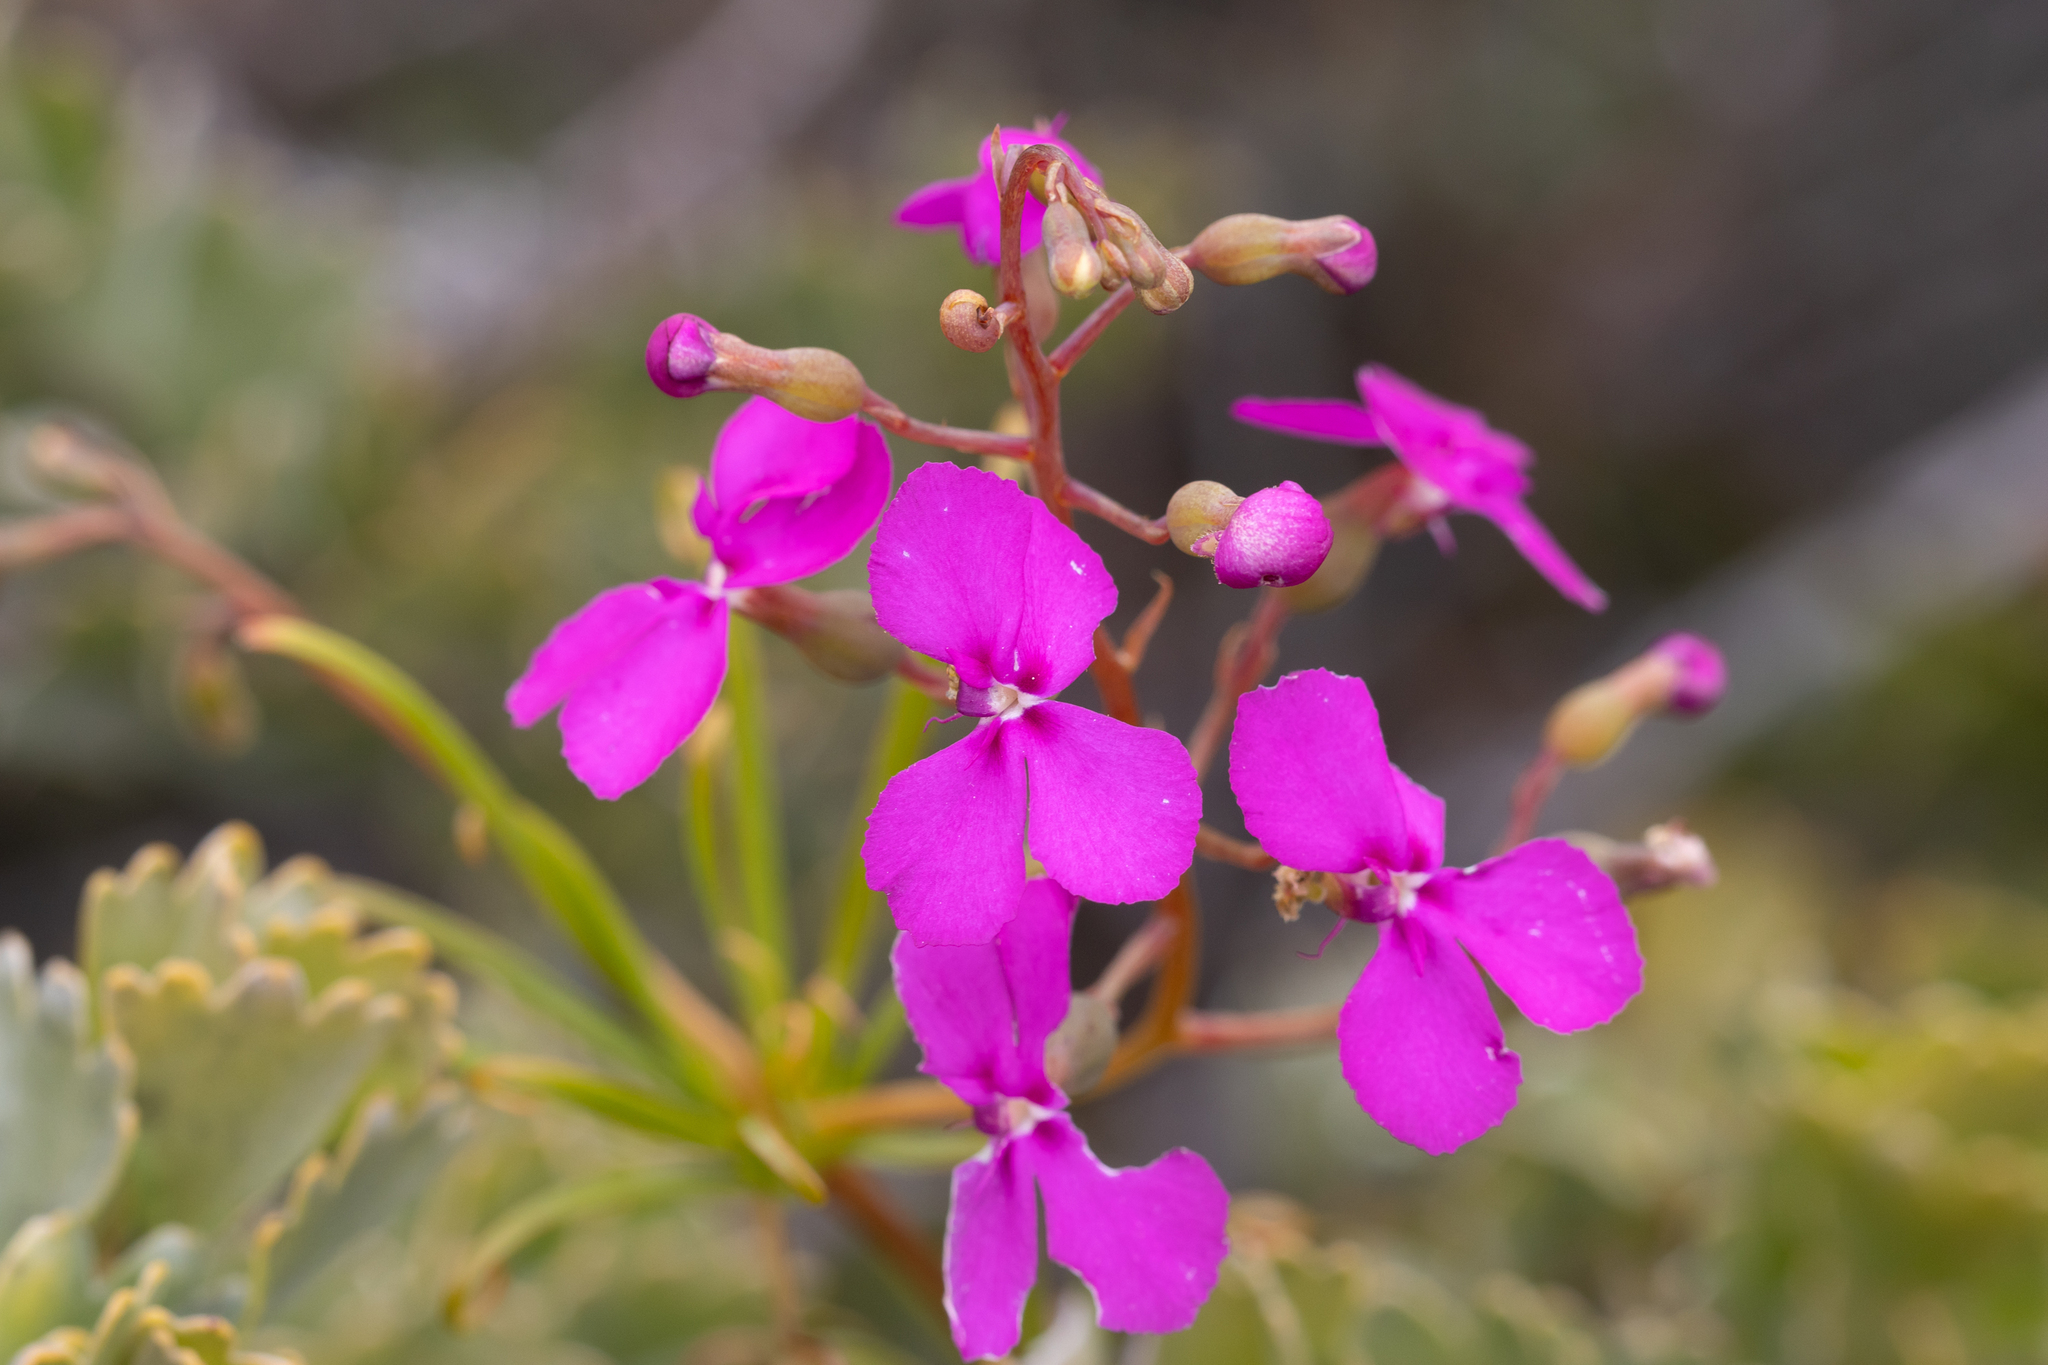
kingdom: Plantae
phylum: Tracheophyta
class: Magnoliopsida
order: Asterales
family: Stylidiaceae
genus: Stylidium
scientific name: Stylidium scandens
